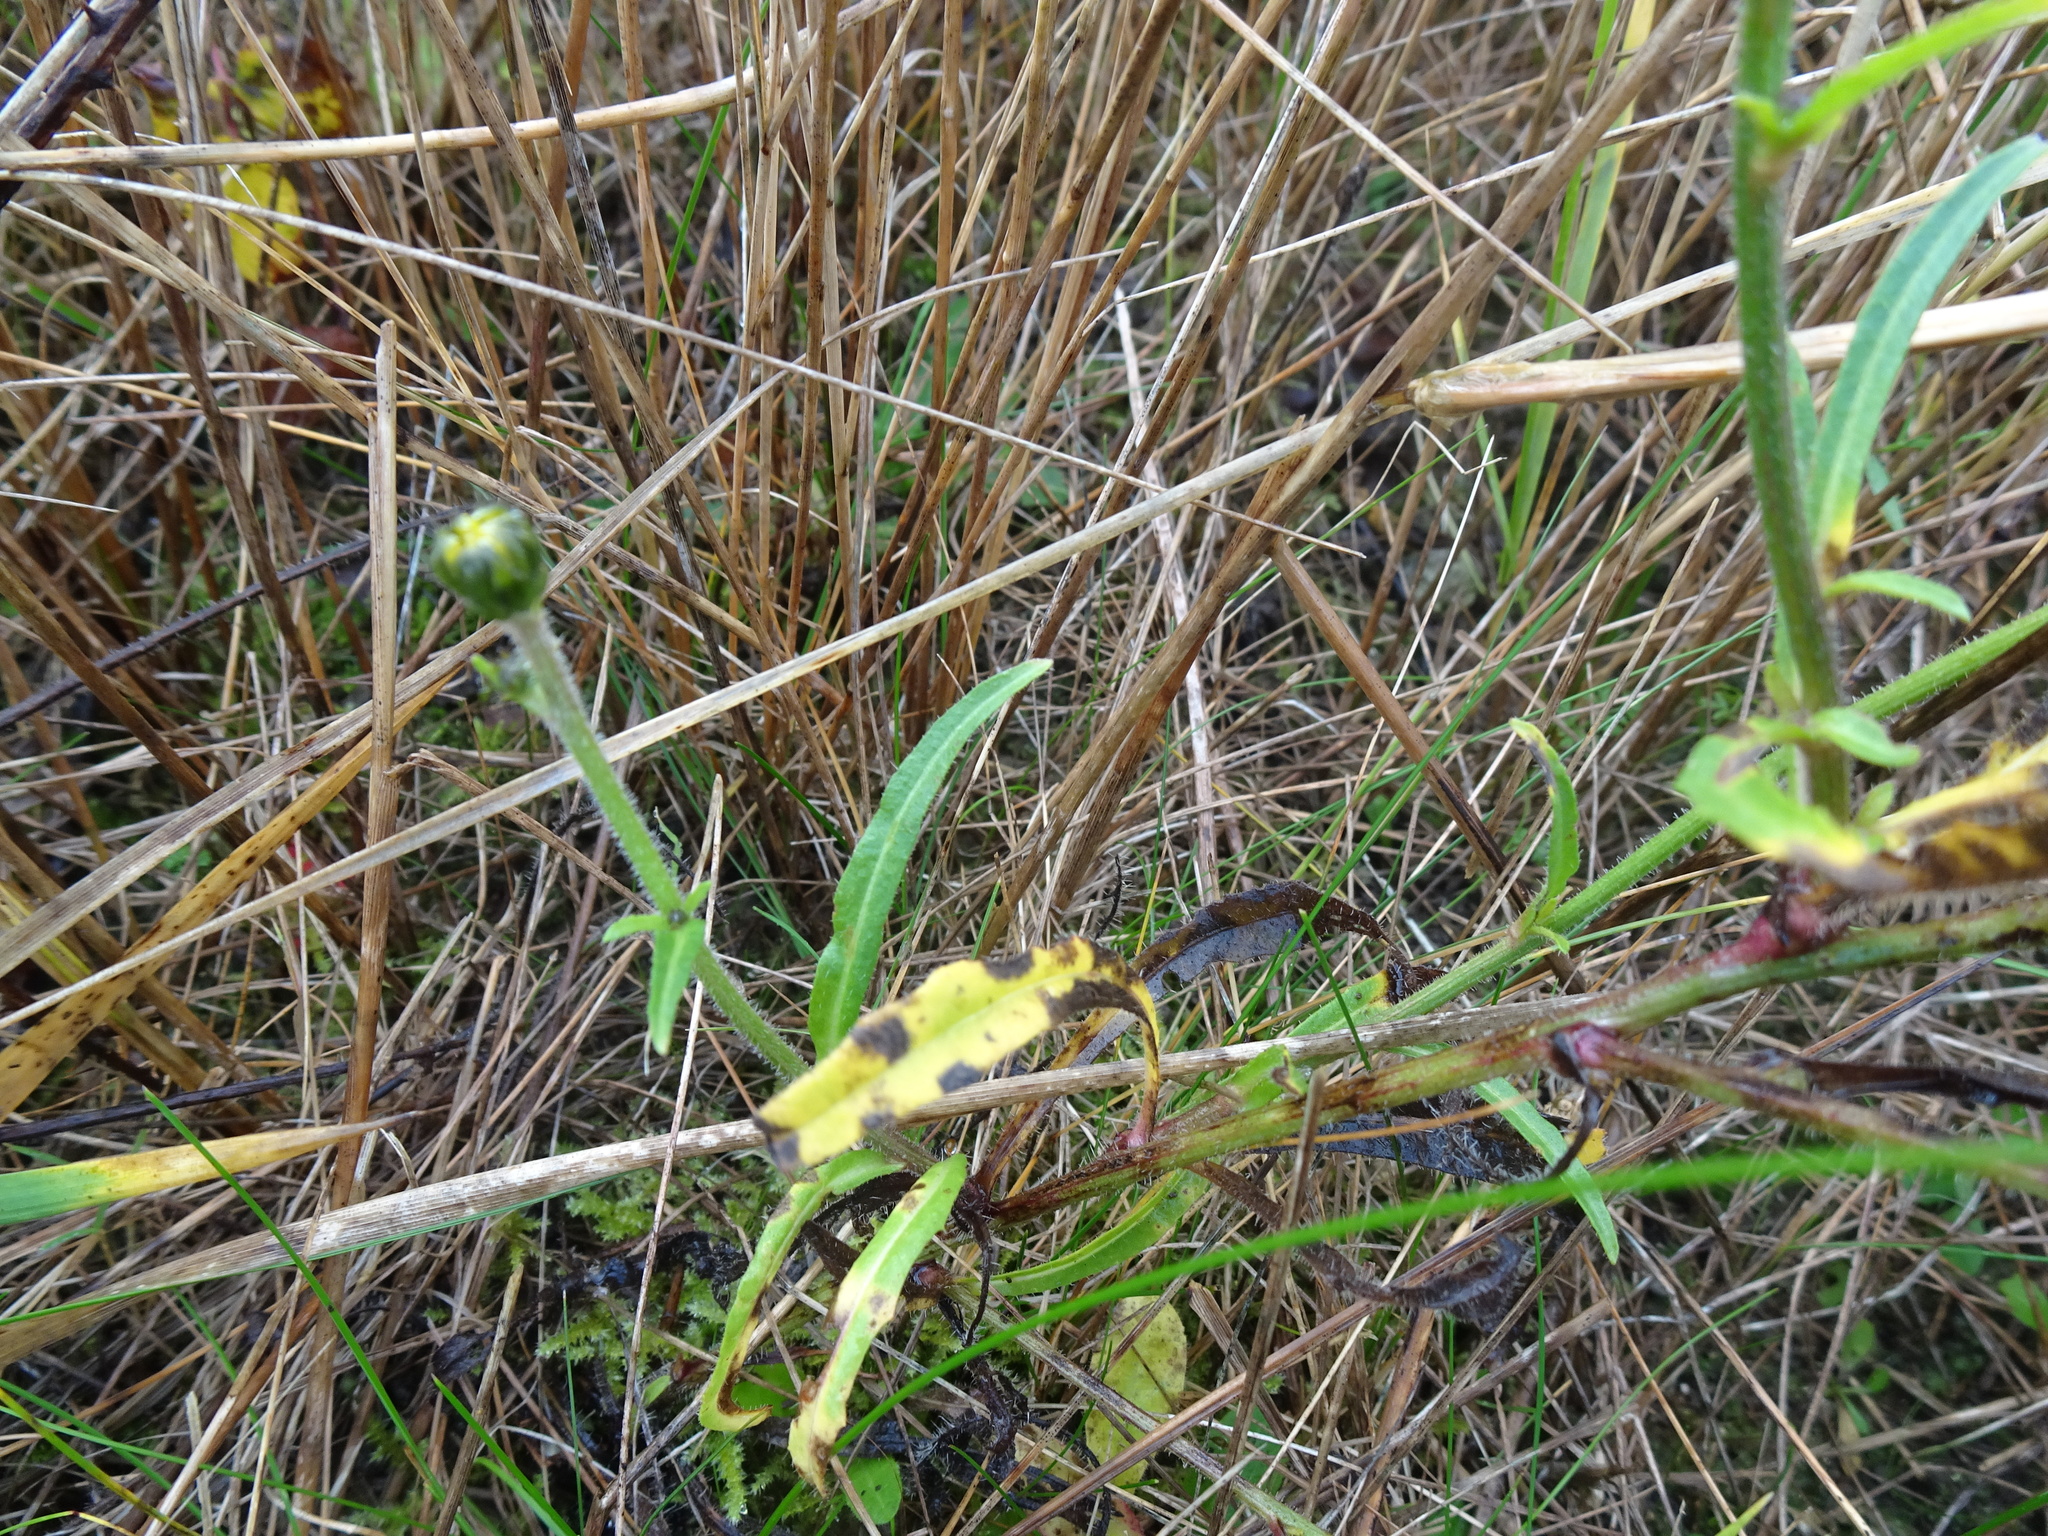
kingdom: Plantae
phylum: Tracheophyta
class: Magnoliopsida
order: Asterales
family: Asteraceae
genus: Picris
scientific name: Picris hieracioides
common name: Hawkweed oxtongue
